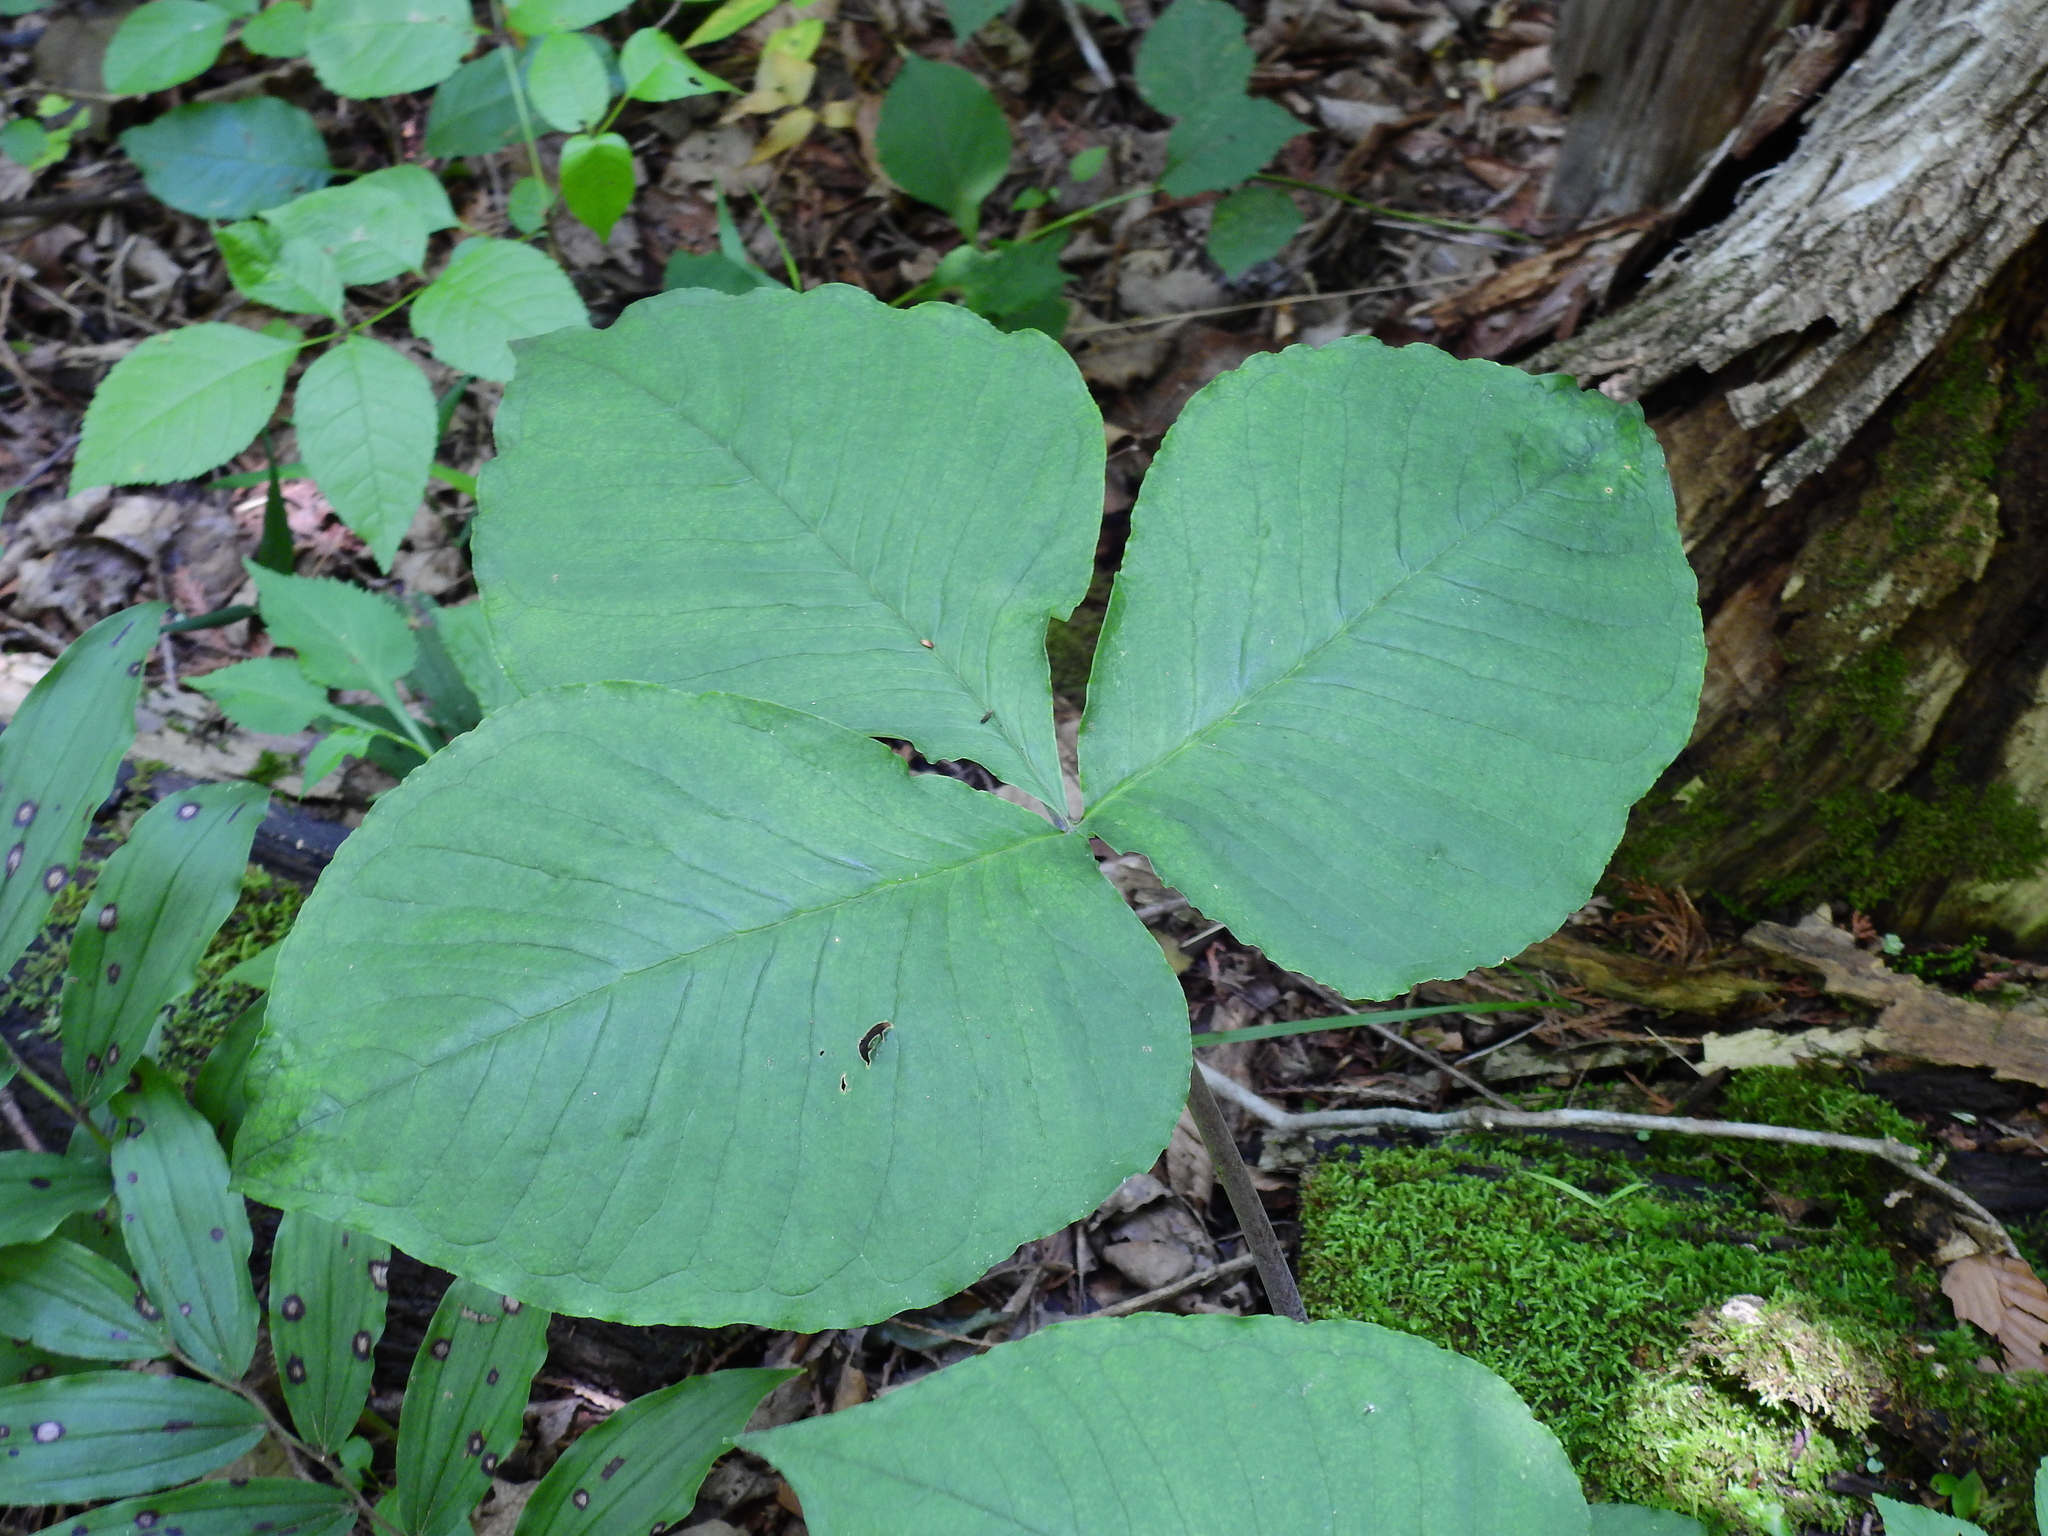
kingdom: Plantae
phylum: Tracheophyta
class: Liliopsida
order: Alismatales
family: Araceae
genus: Arisaema
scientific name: Arisaema triphyllum
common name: Jack-in-the-pulpit
